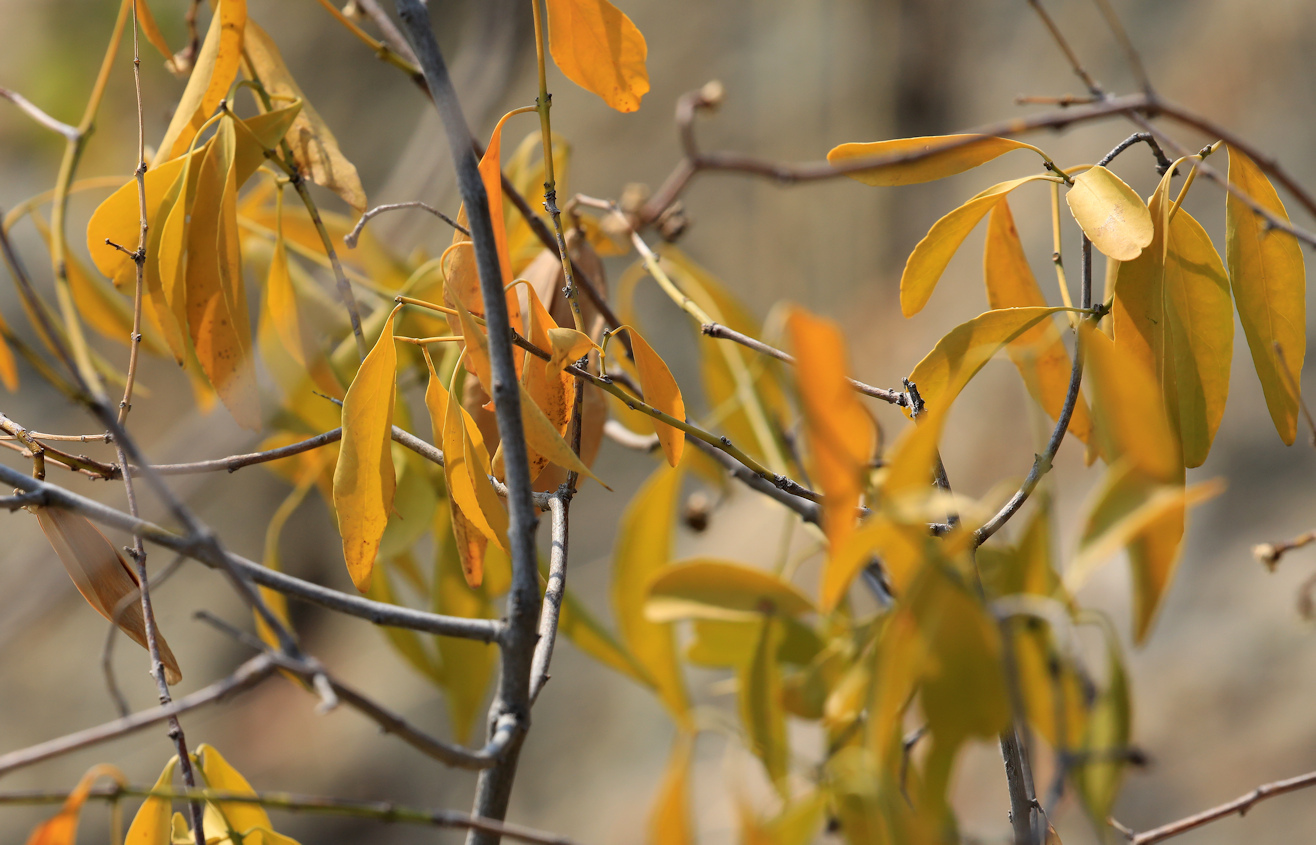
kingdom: Plantae
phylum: Tracheophyta
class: Magnoliopsida
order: Celastrales
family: Celastraceae
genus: Pristimera
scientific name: Pristimera longipetiolata
